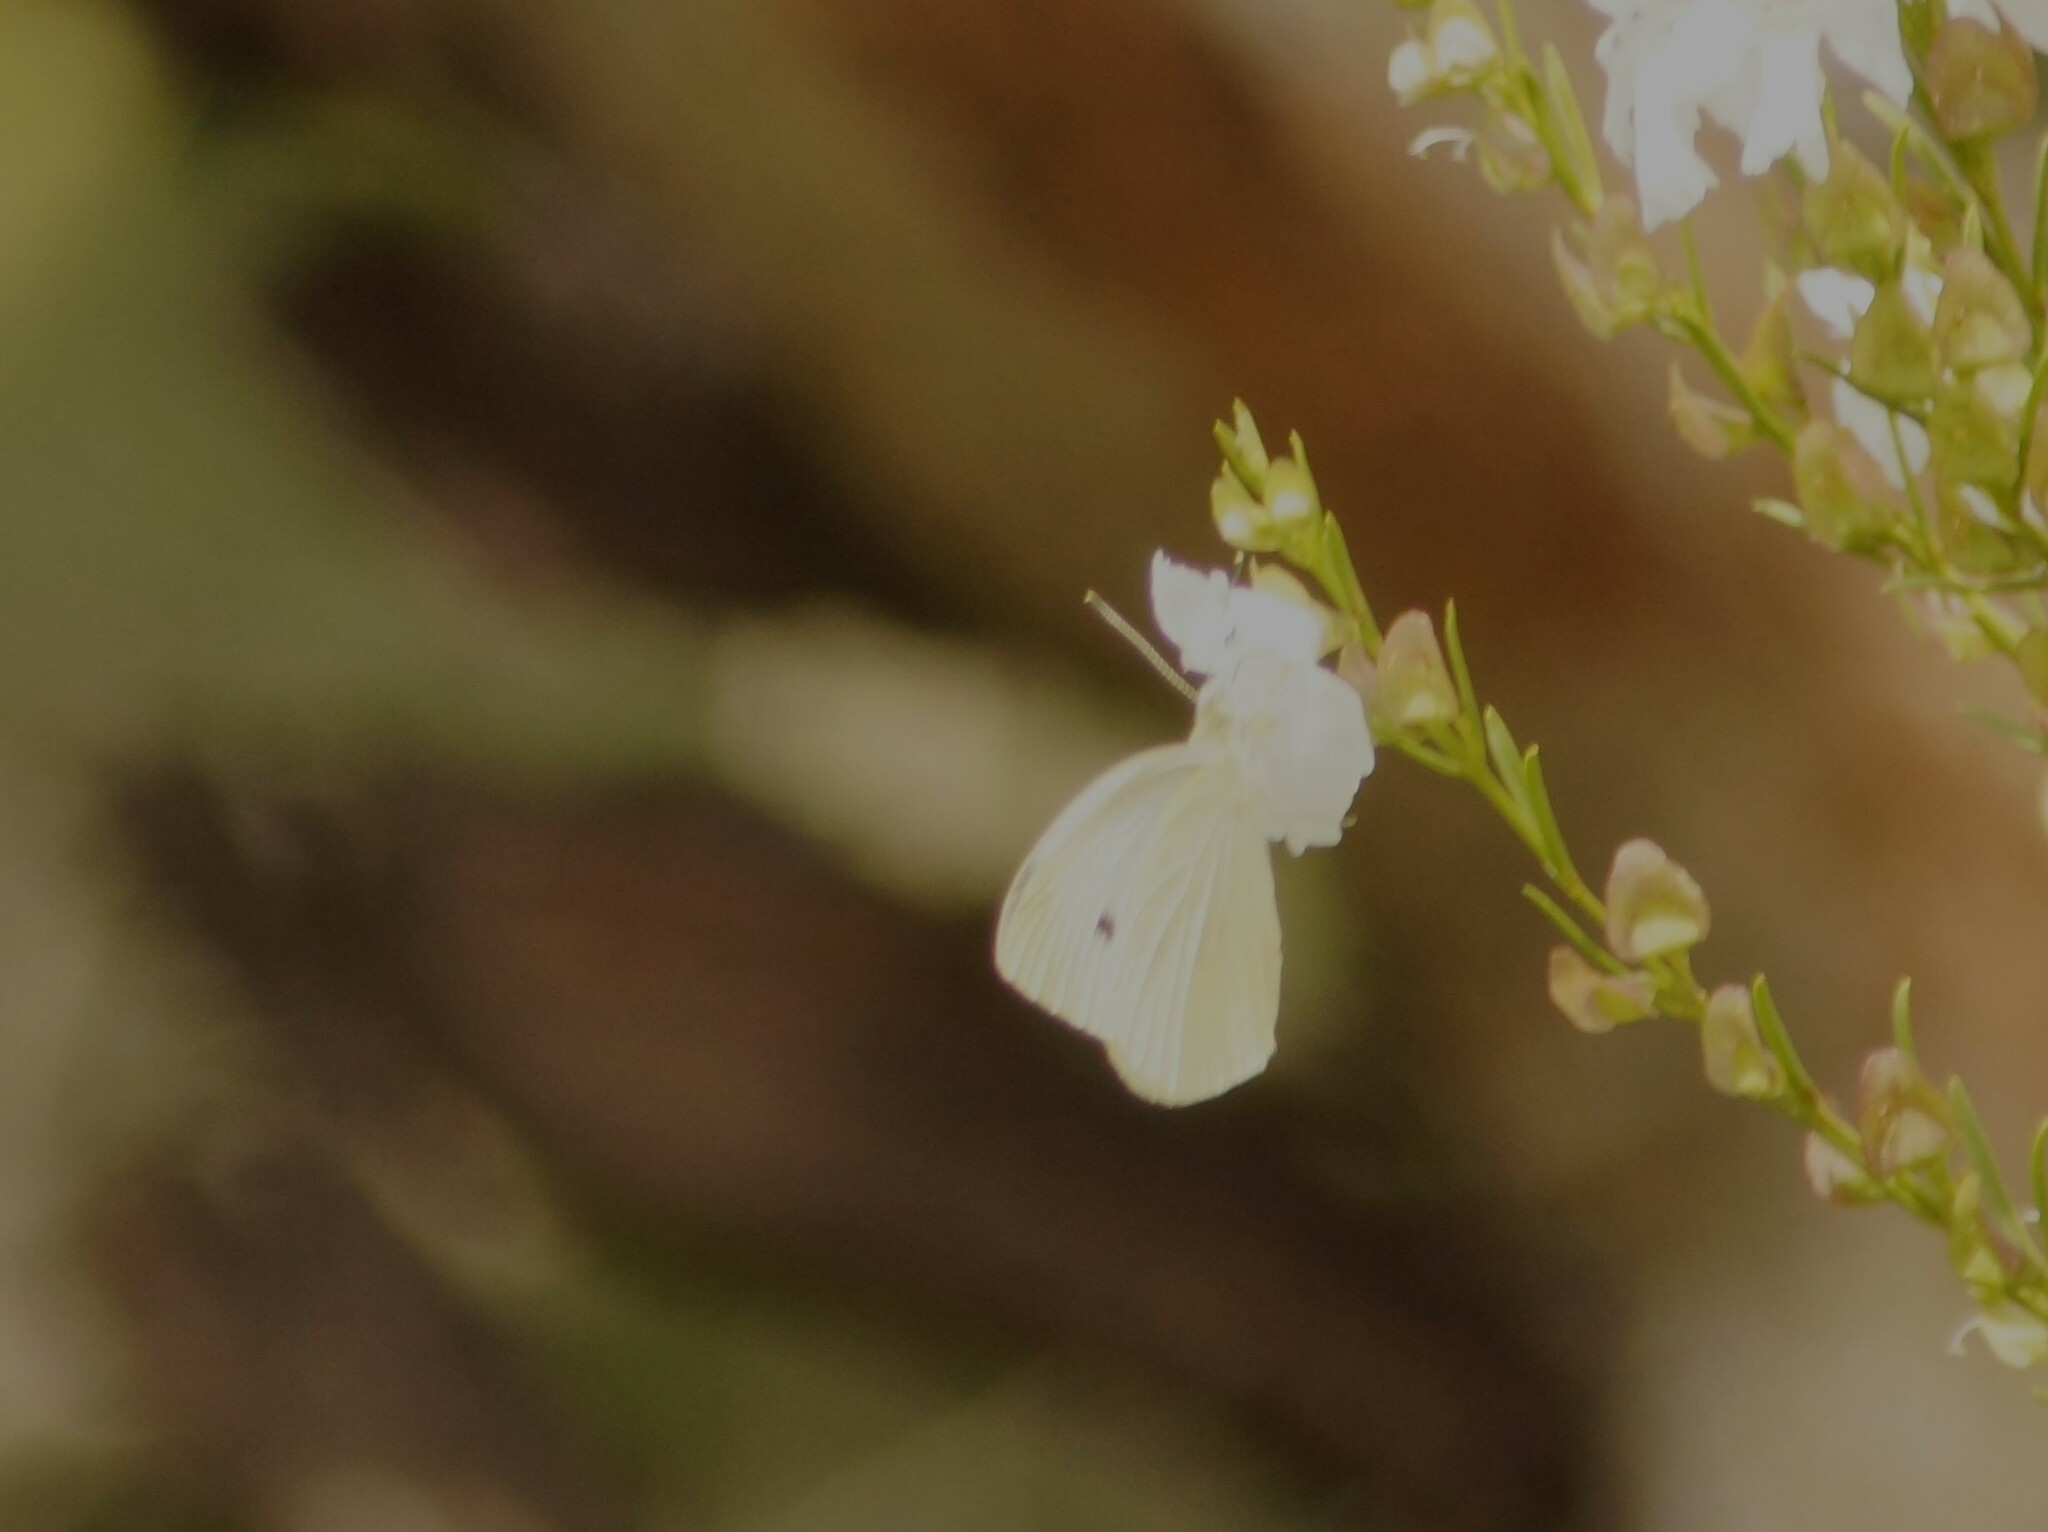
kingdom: Animalia
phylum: Arthropoda
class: Insecta
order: Lepidoptera
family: Pieridae
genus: Pieris
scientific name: Pieris rapae
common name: Small white
